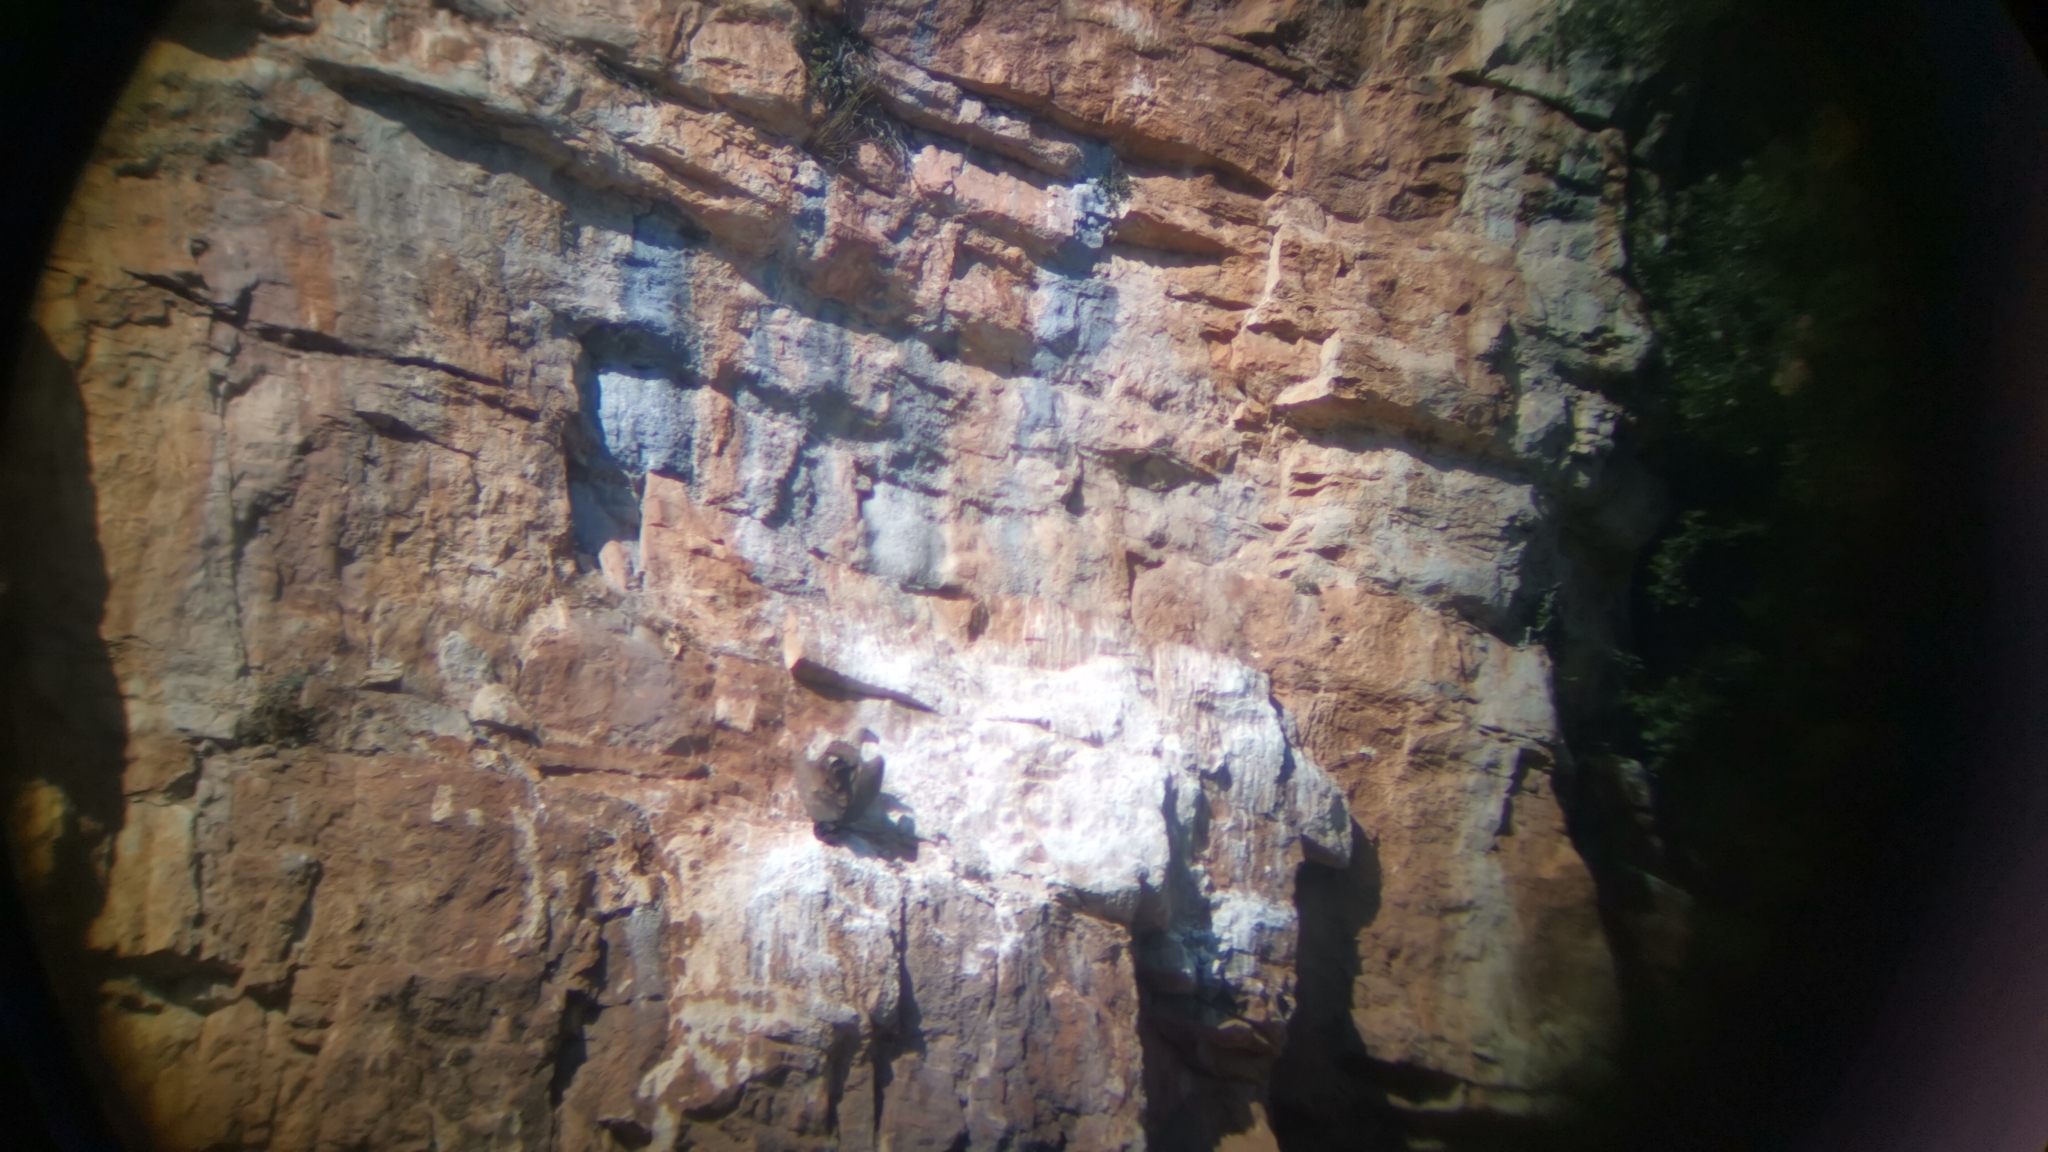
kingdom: Animalia
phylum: Chordata
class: Aves
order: Accipitriformes
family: Accipitridae
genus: Gyps
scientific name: Gyps fulvus
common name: Griffon vulture
